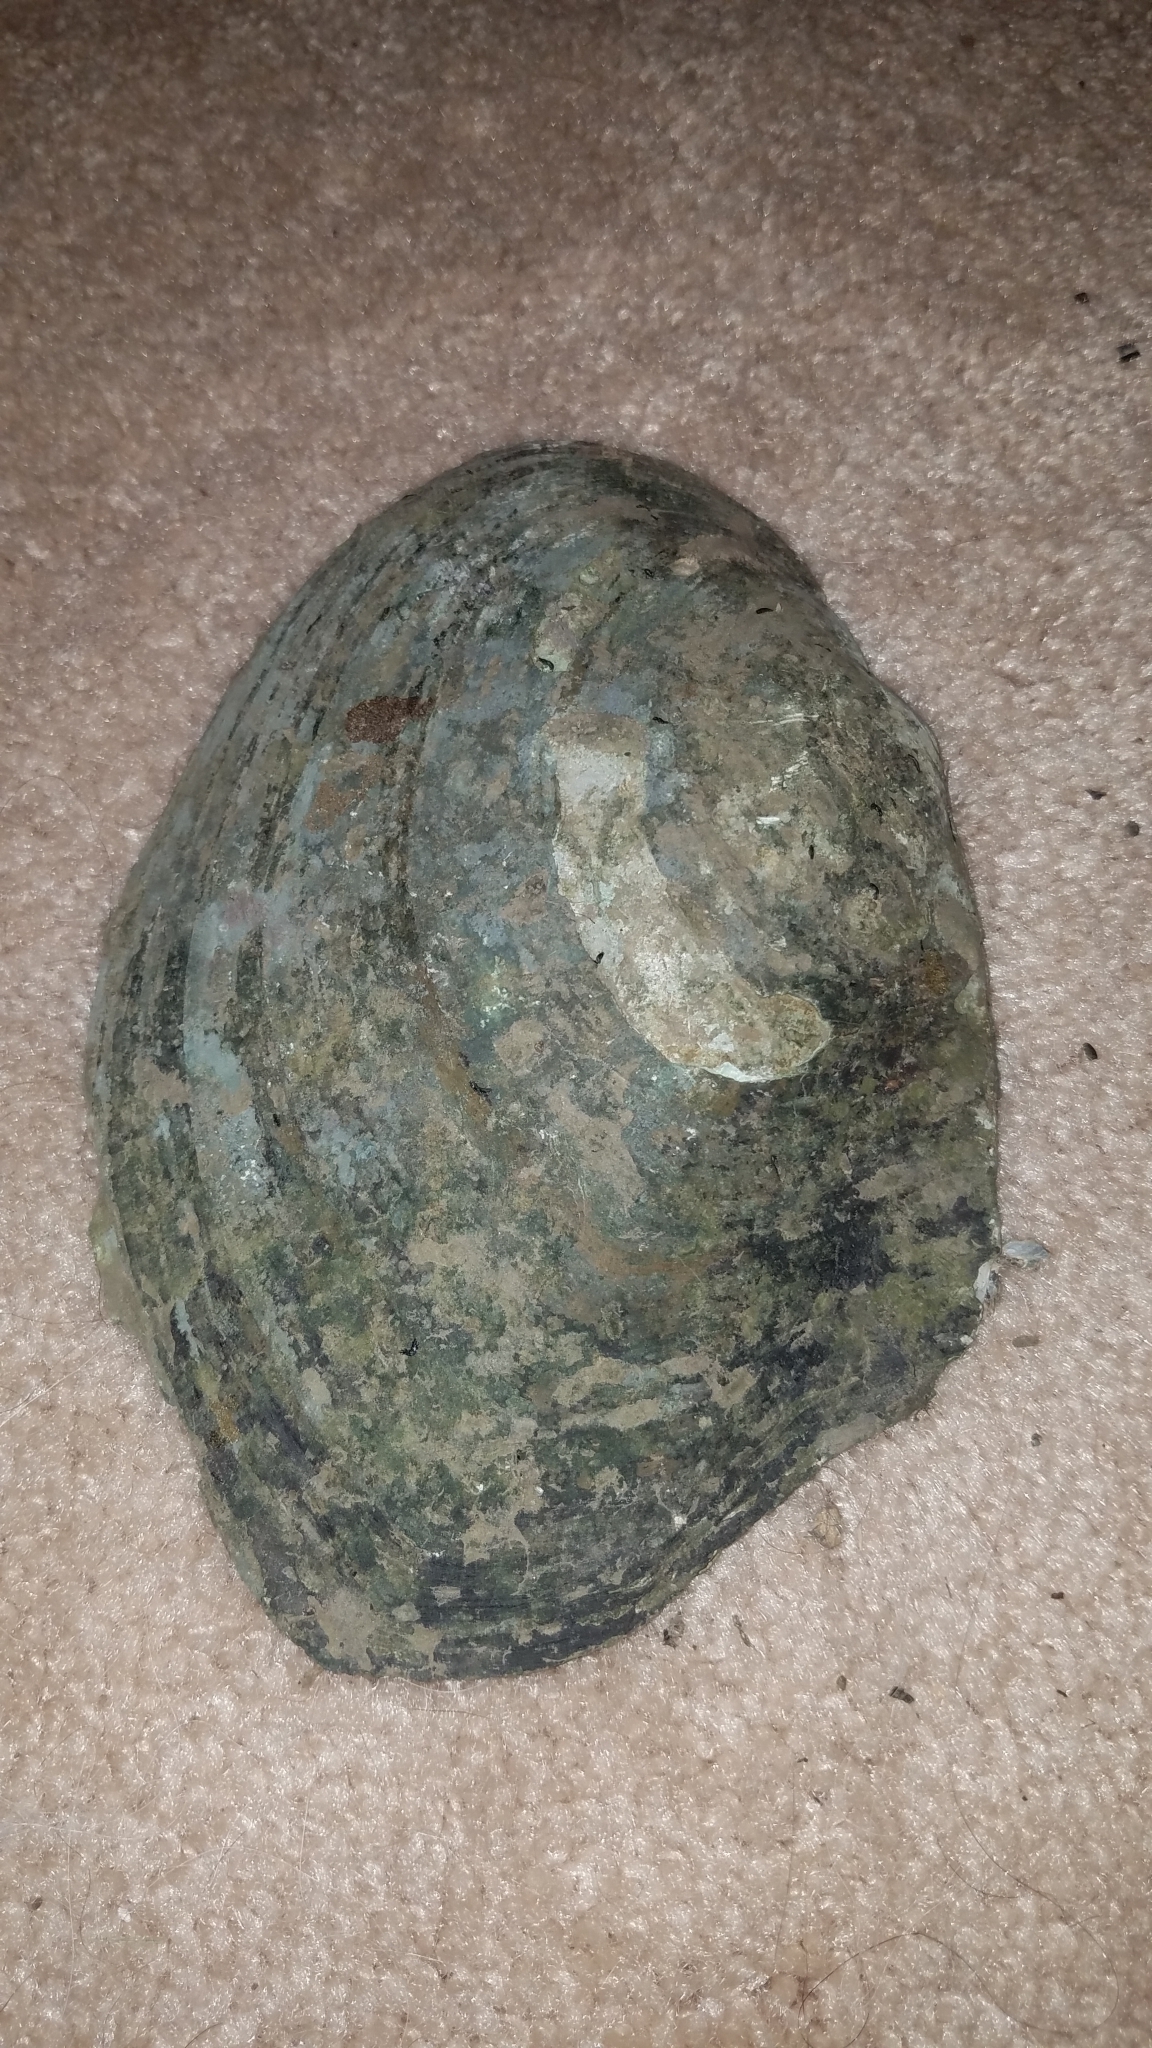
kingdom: Animalia
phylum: Mollusca
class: Bivalvia
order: Unionida
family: Unionidae
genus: Lasmigona
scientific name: Lasmigona complanata
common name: White heelsplitter
